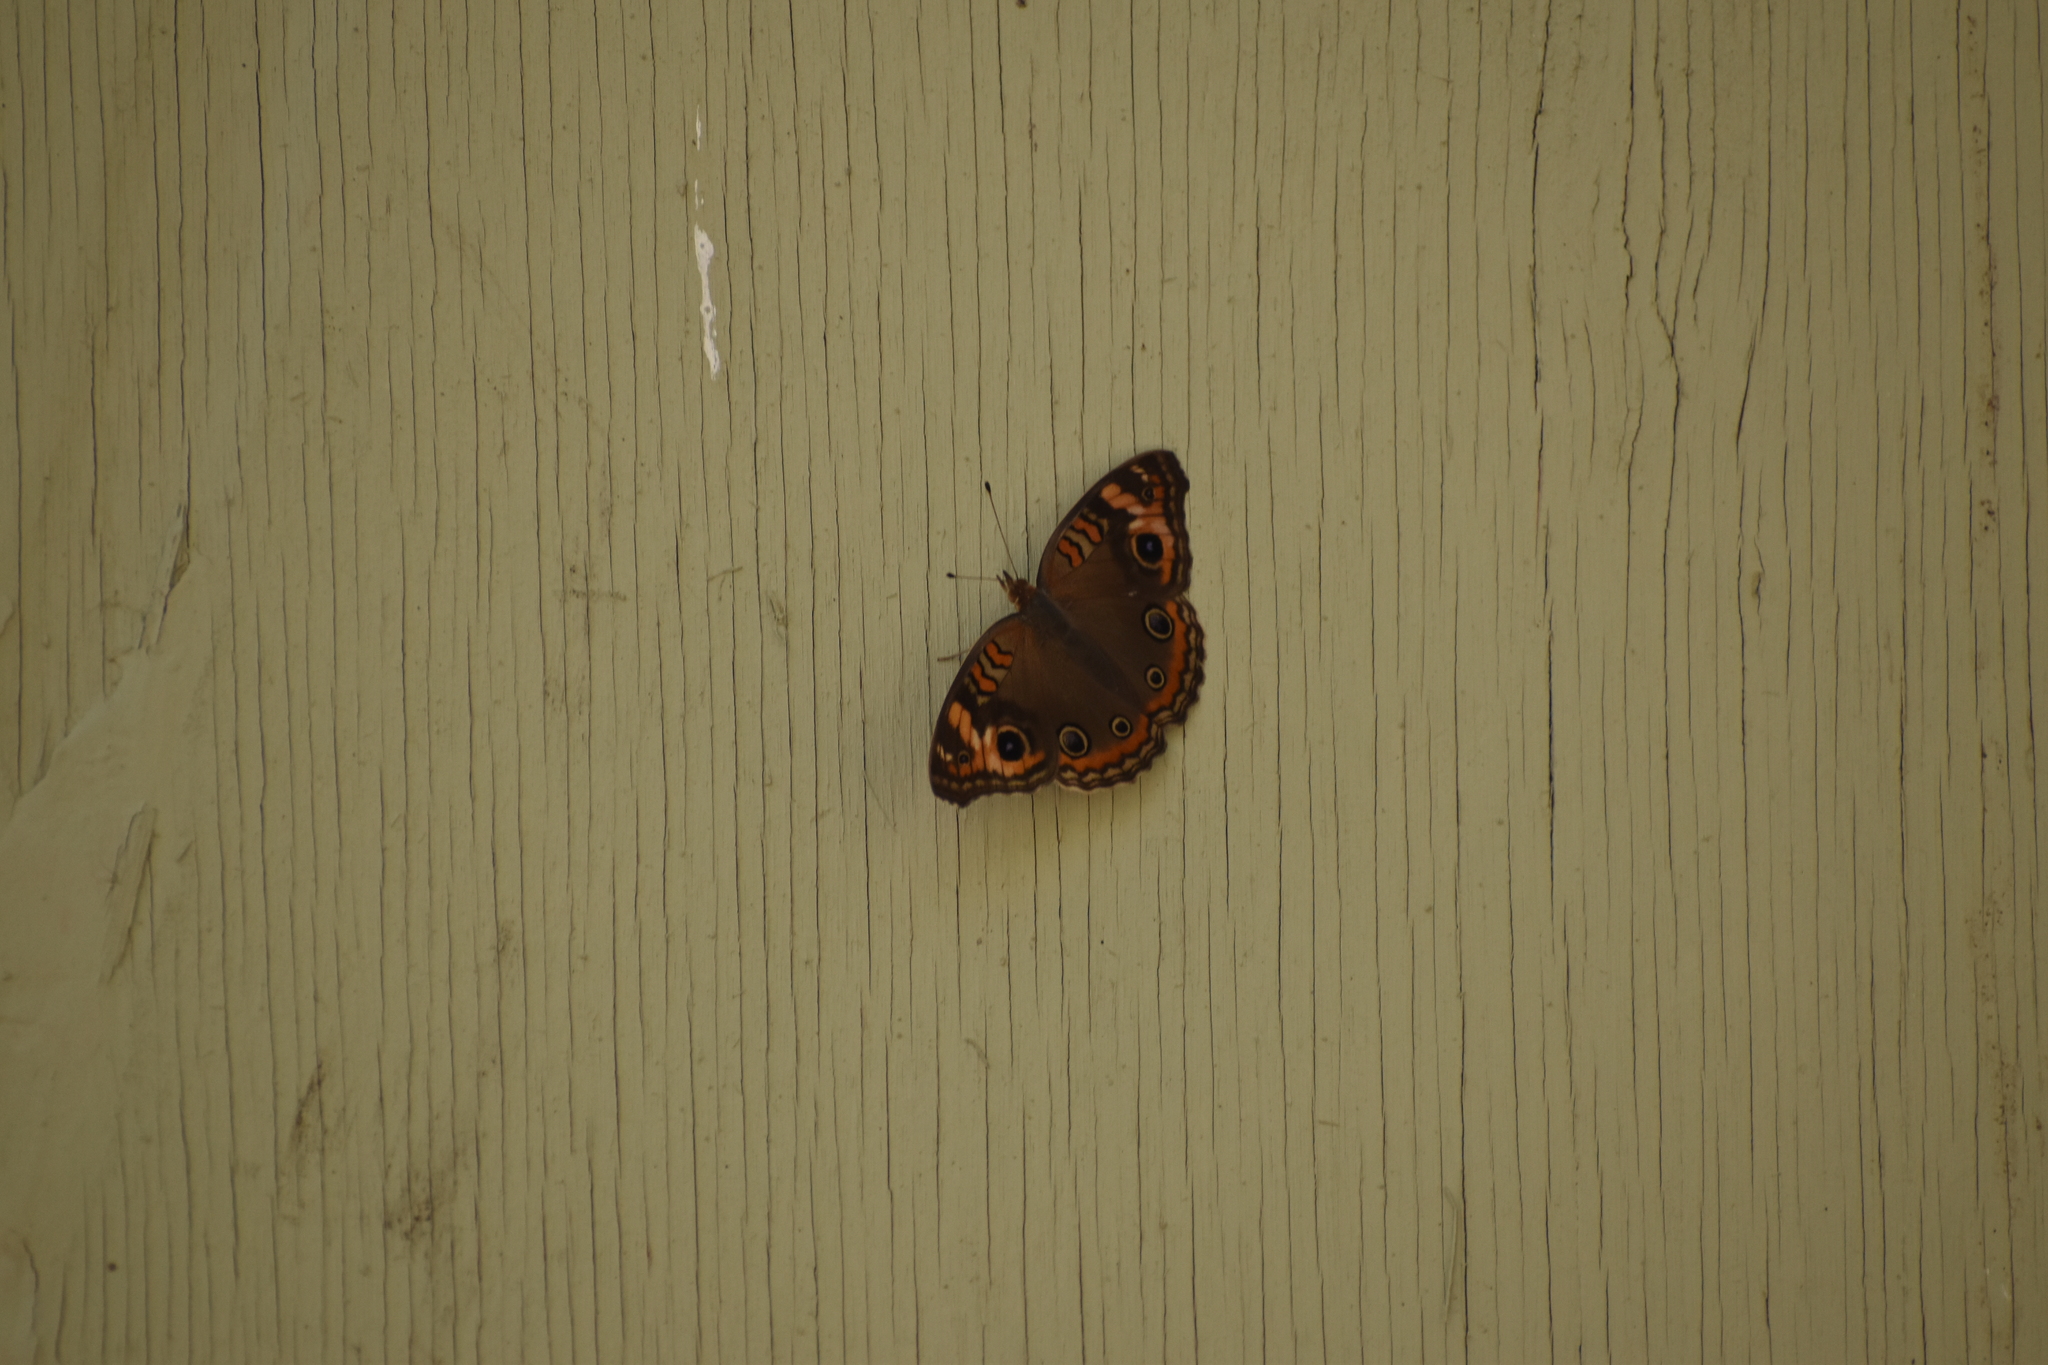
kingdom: Animalia
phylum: Arthropoda
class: Insecta
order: Lepidoptera
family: Nymphalidae
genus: Junonia
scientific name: Junonia lavinia
